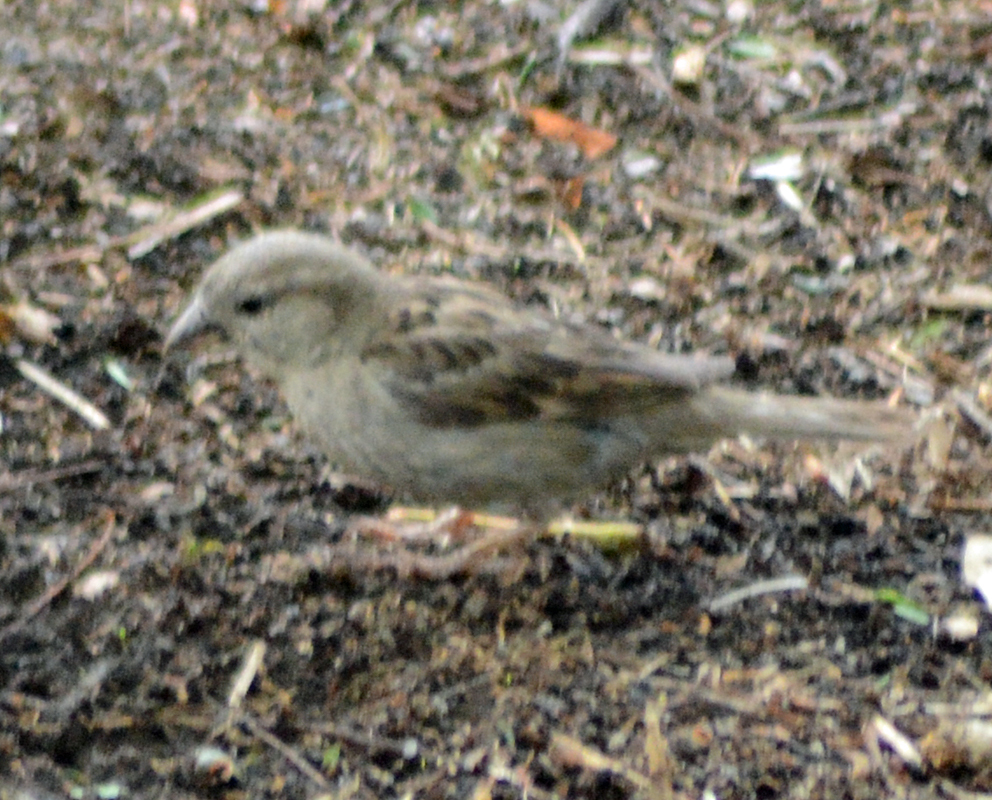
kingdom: Animalia
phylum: Chordata
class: Aves
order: Passeriformes
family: Passeridae
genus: Passer
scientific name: Passer domesticus
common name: House sparrow
